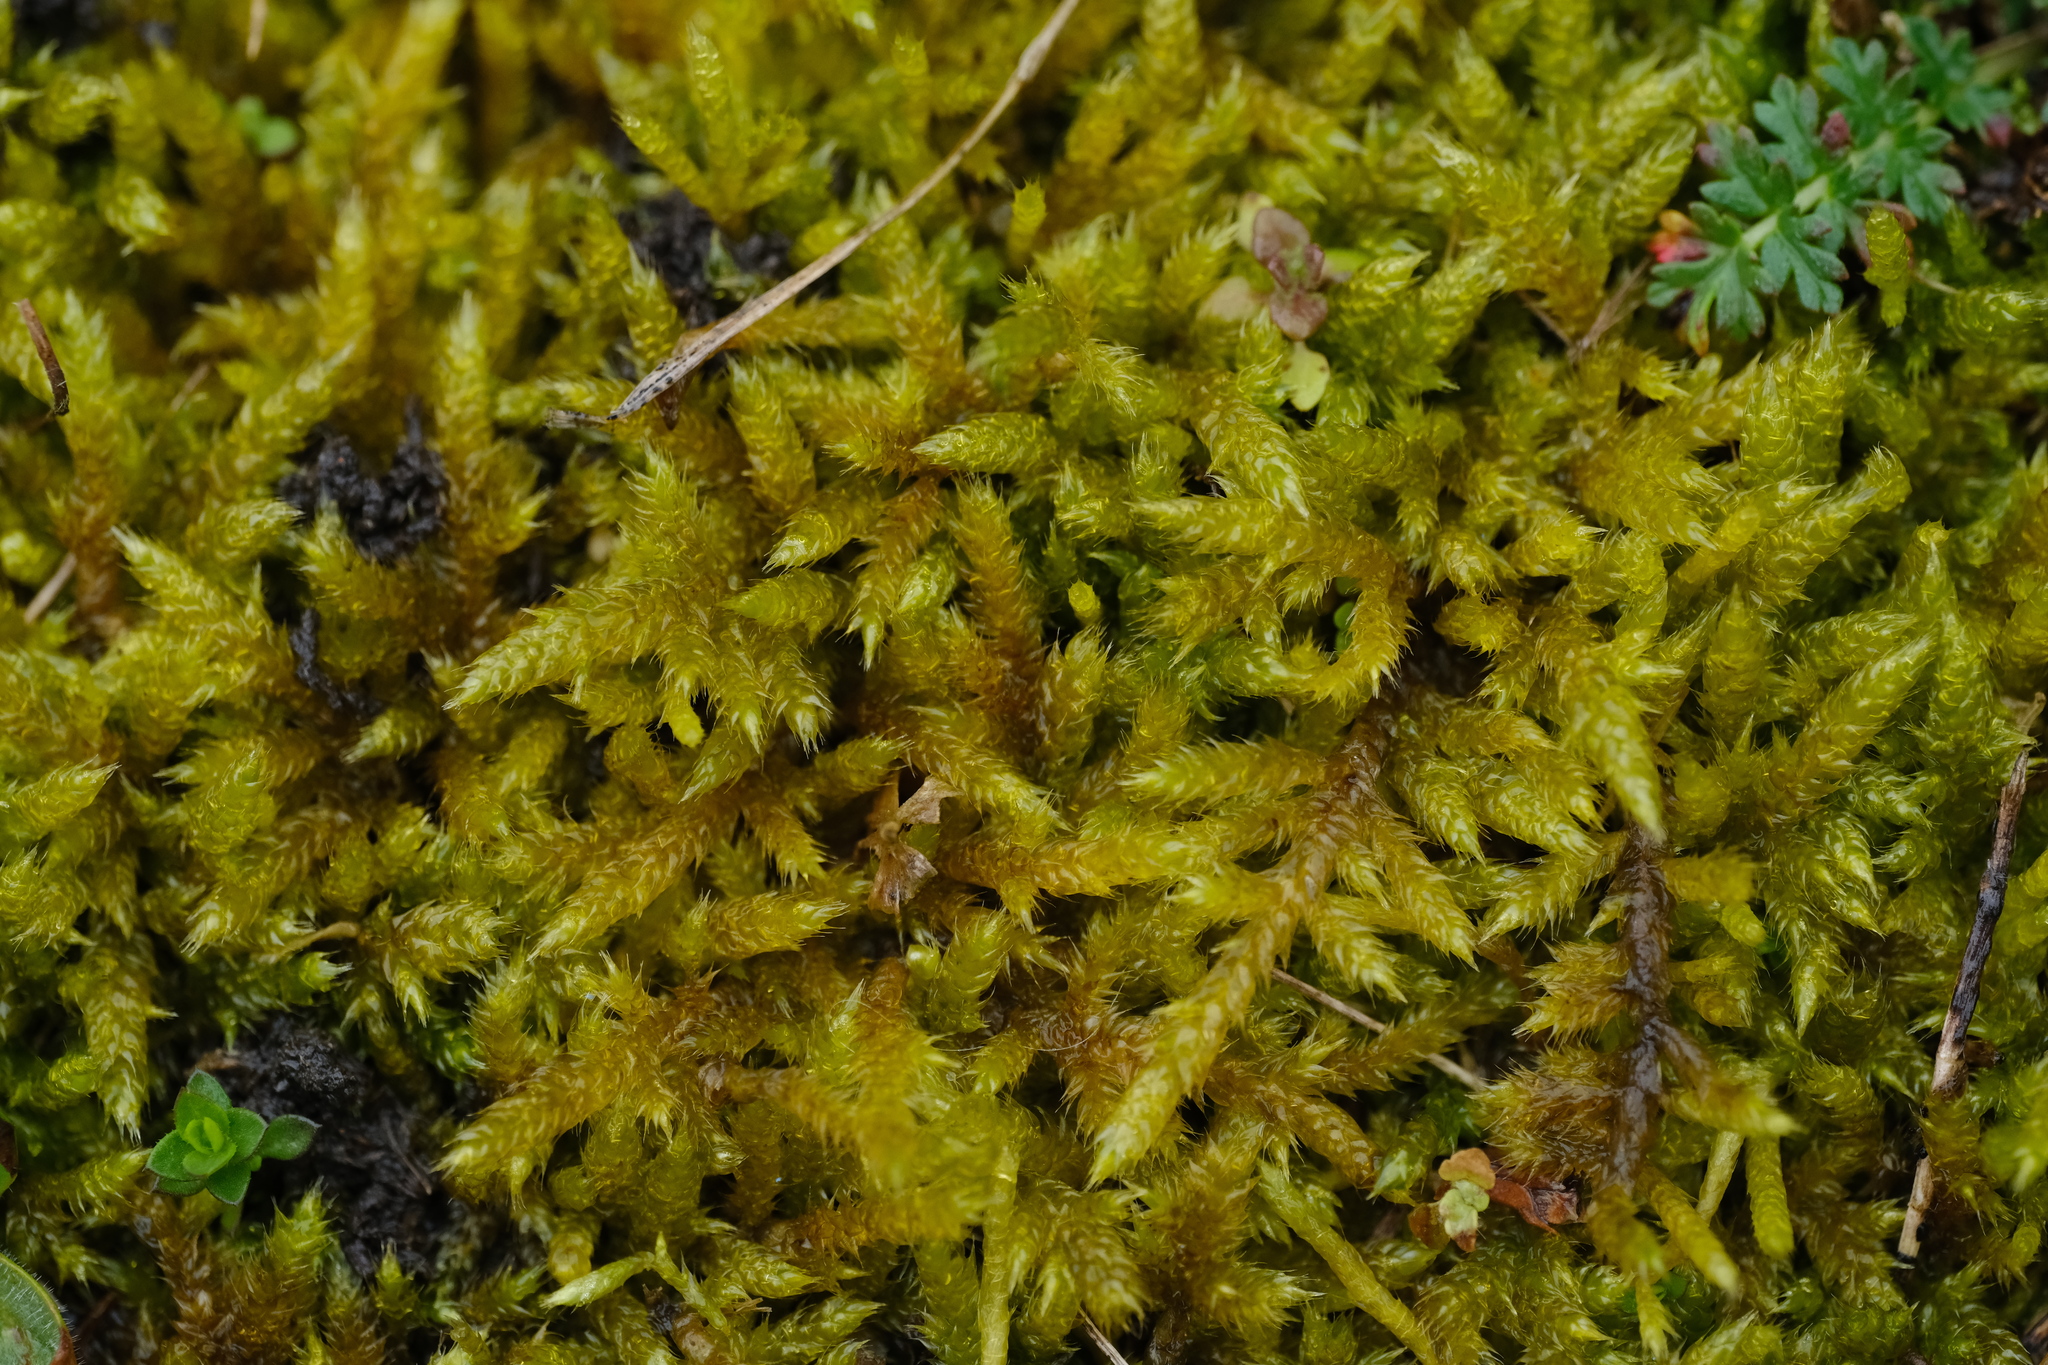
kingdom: Plantae
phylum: Bryophyta
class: Bryopsida
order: Hypnales
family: Hypnaceae
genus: Hypnum
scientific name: Hypnum cupressiforme
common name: Cypress-leaved plait-moss
